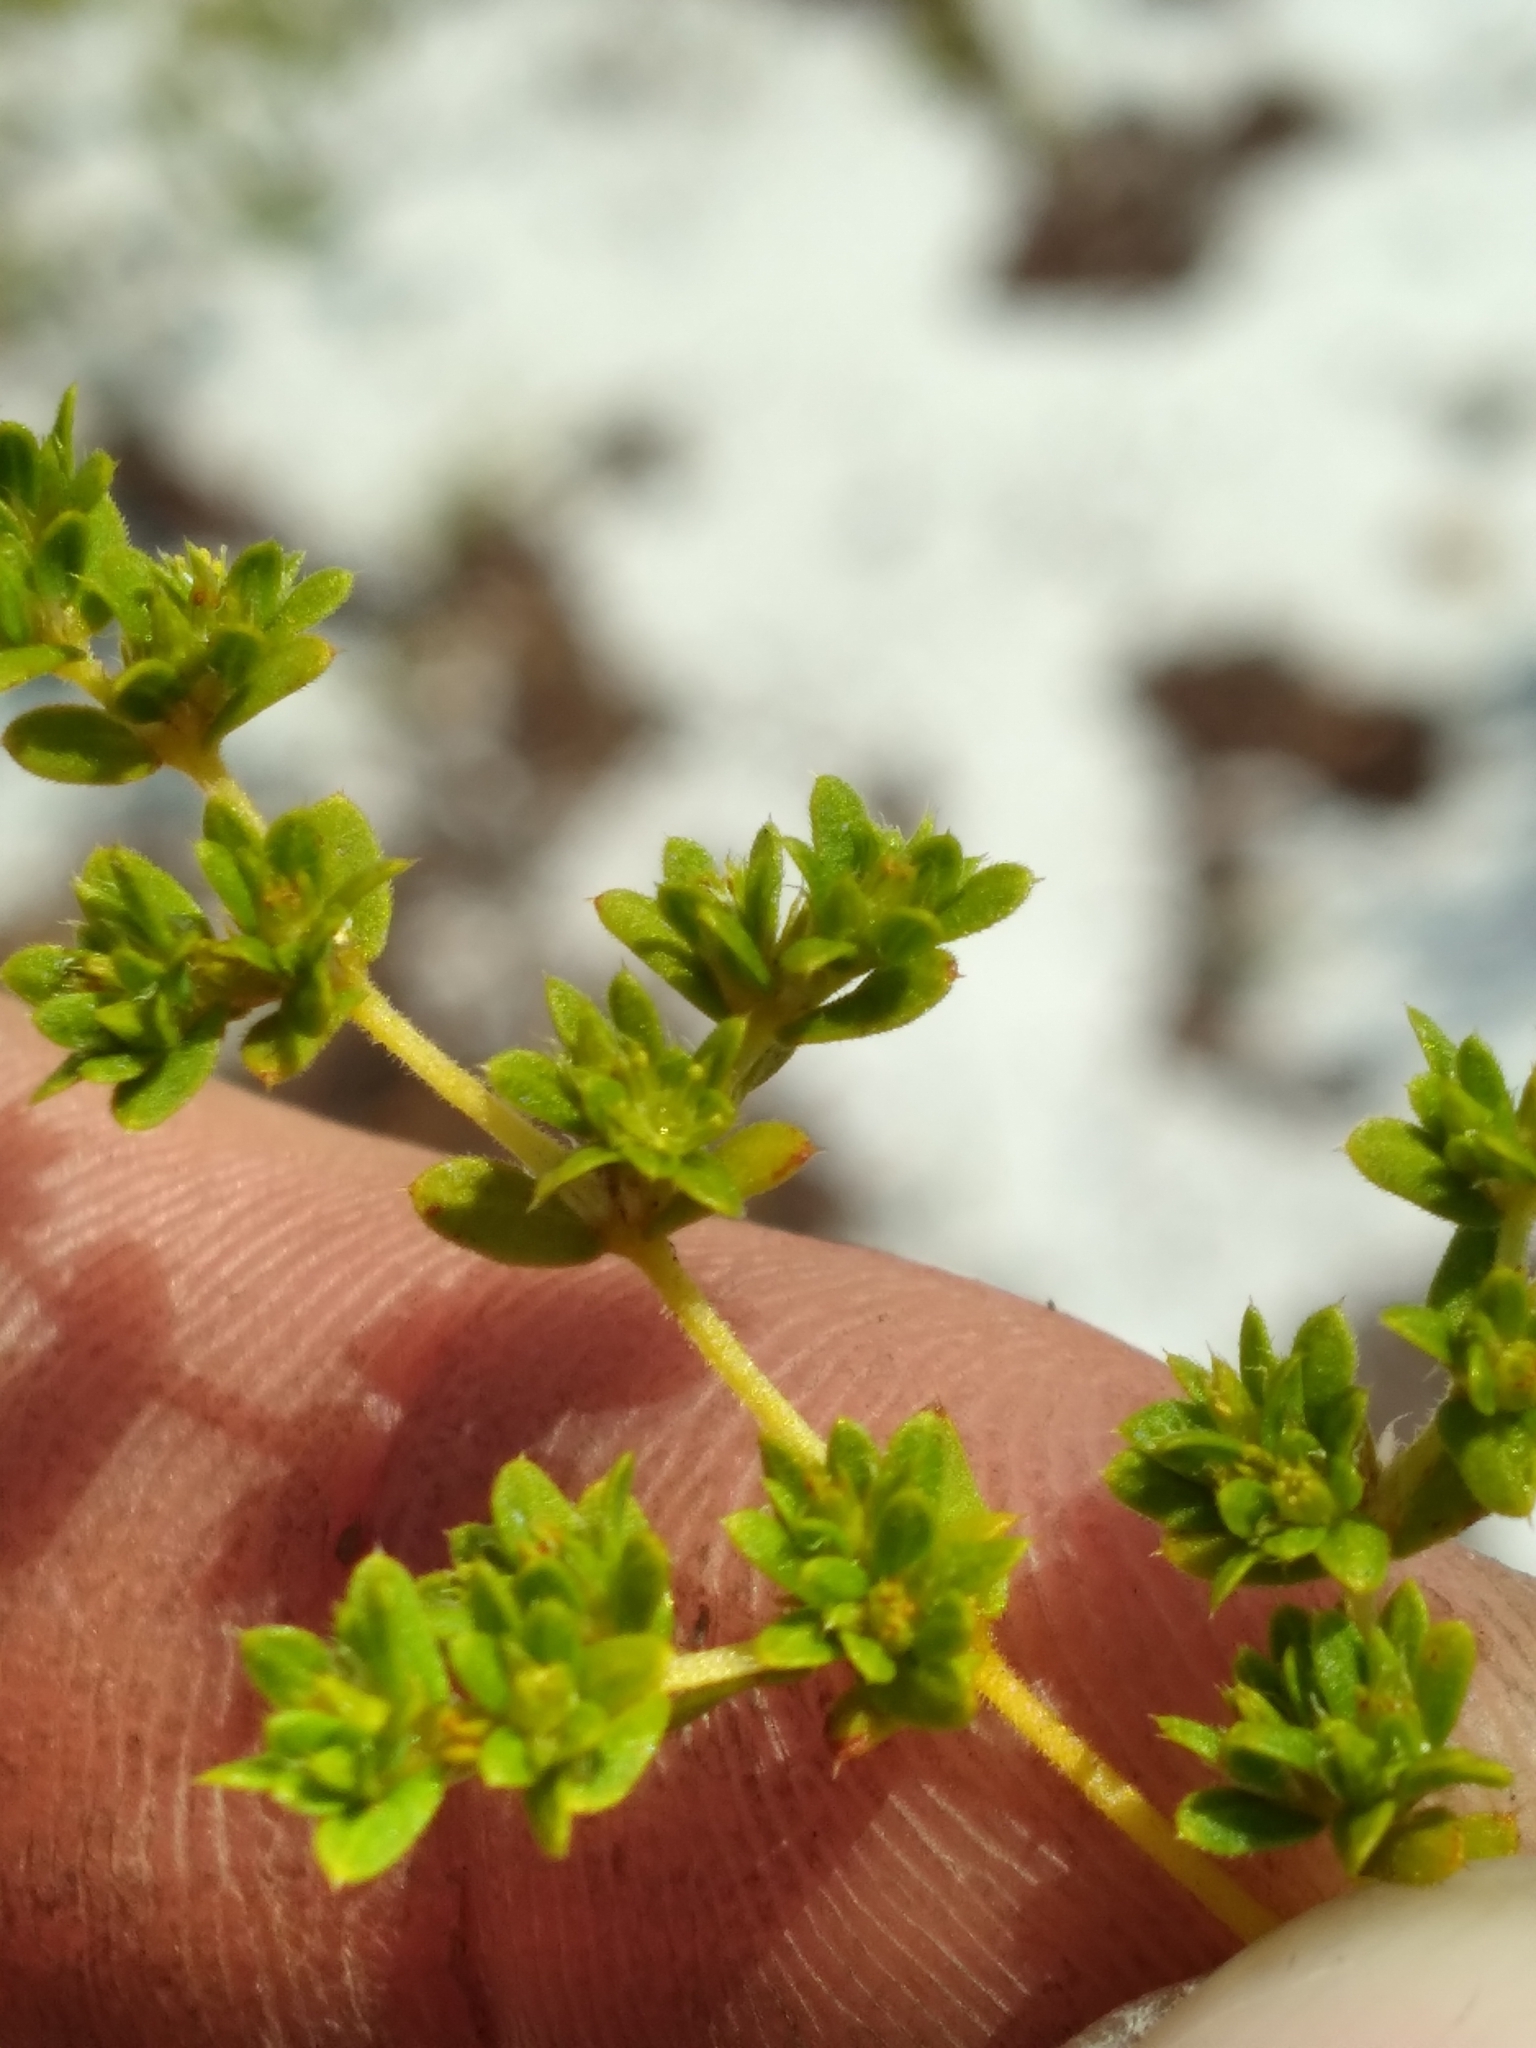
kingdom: Plantae
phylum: Tracheophyta
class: Magnoliopsida
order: Caryophyllales
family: Caryophyllaceae
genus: Paronychia
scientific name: Paronychia herniarioides
